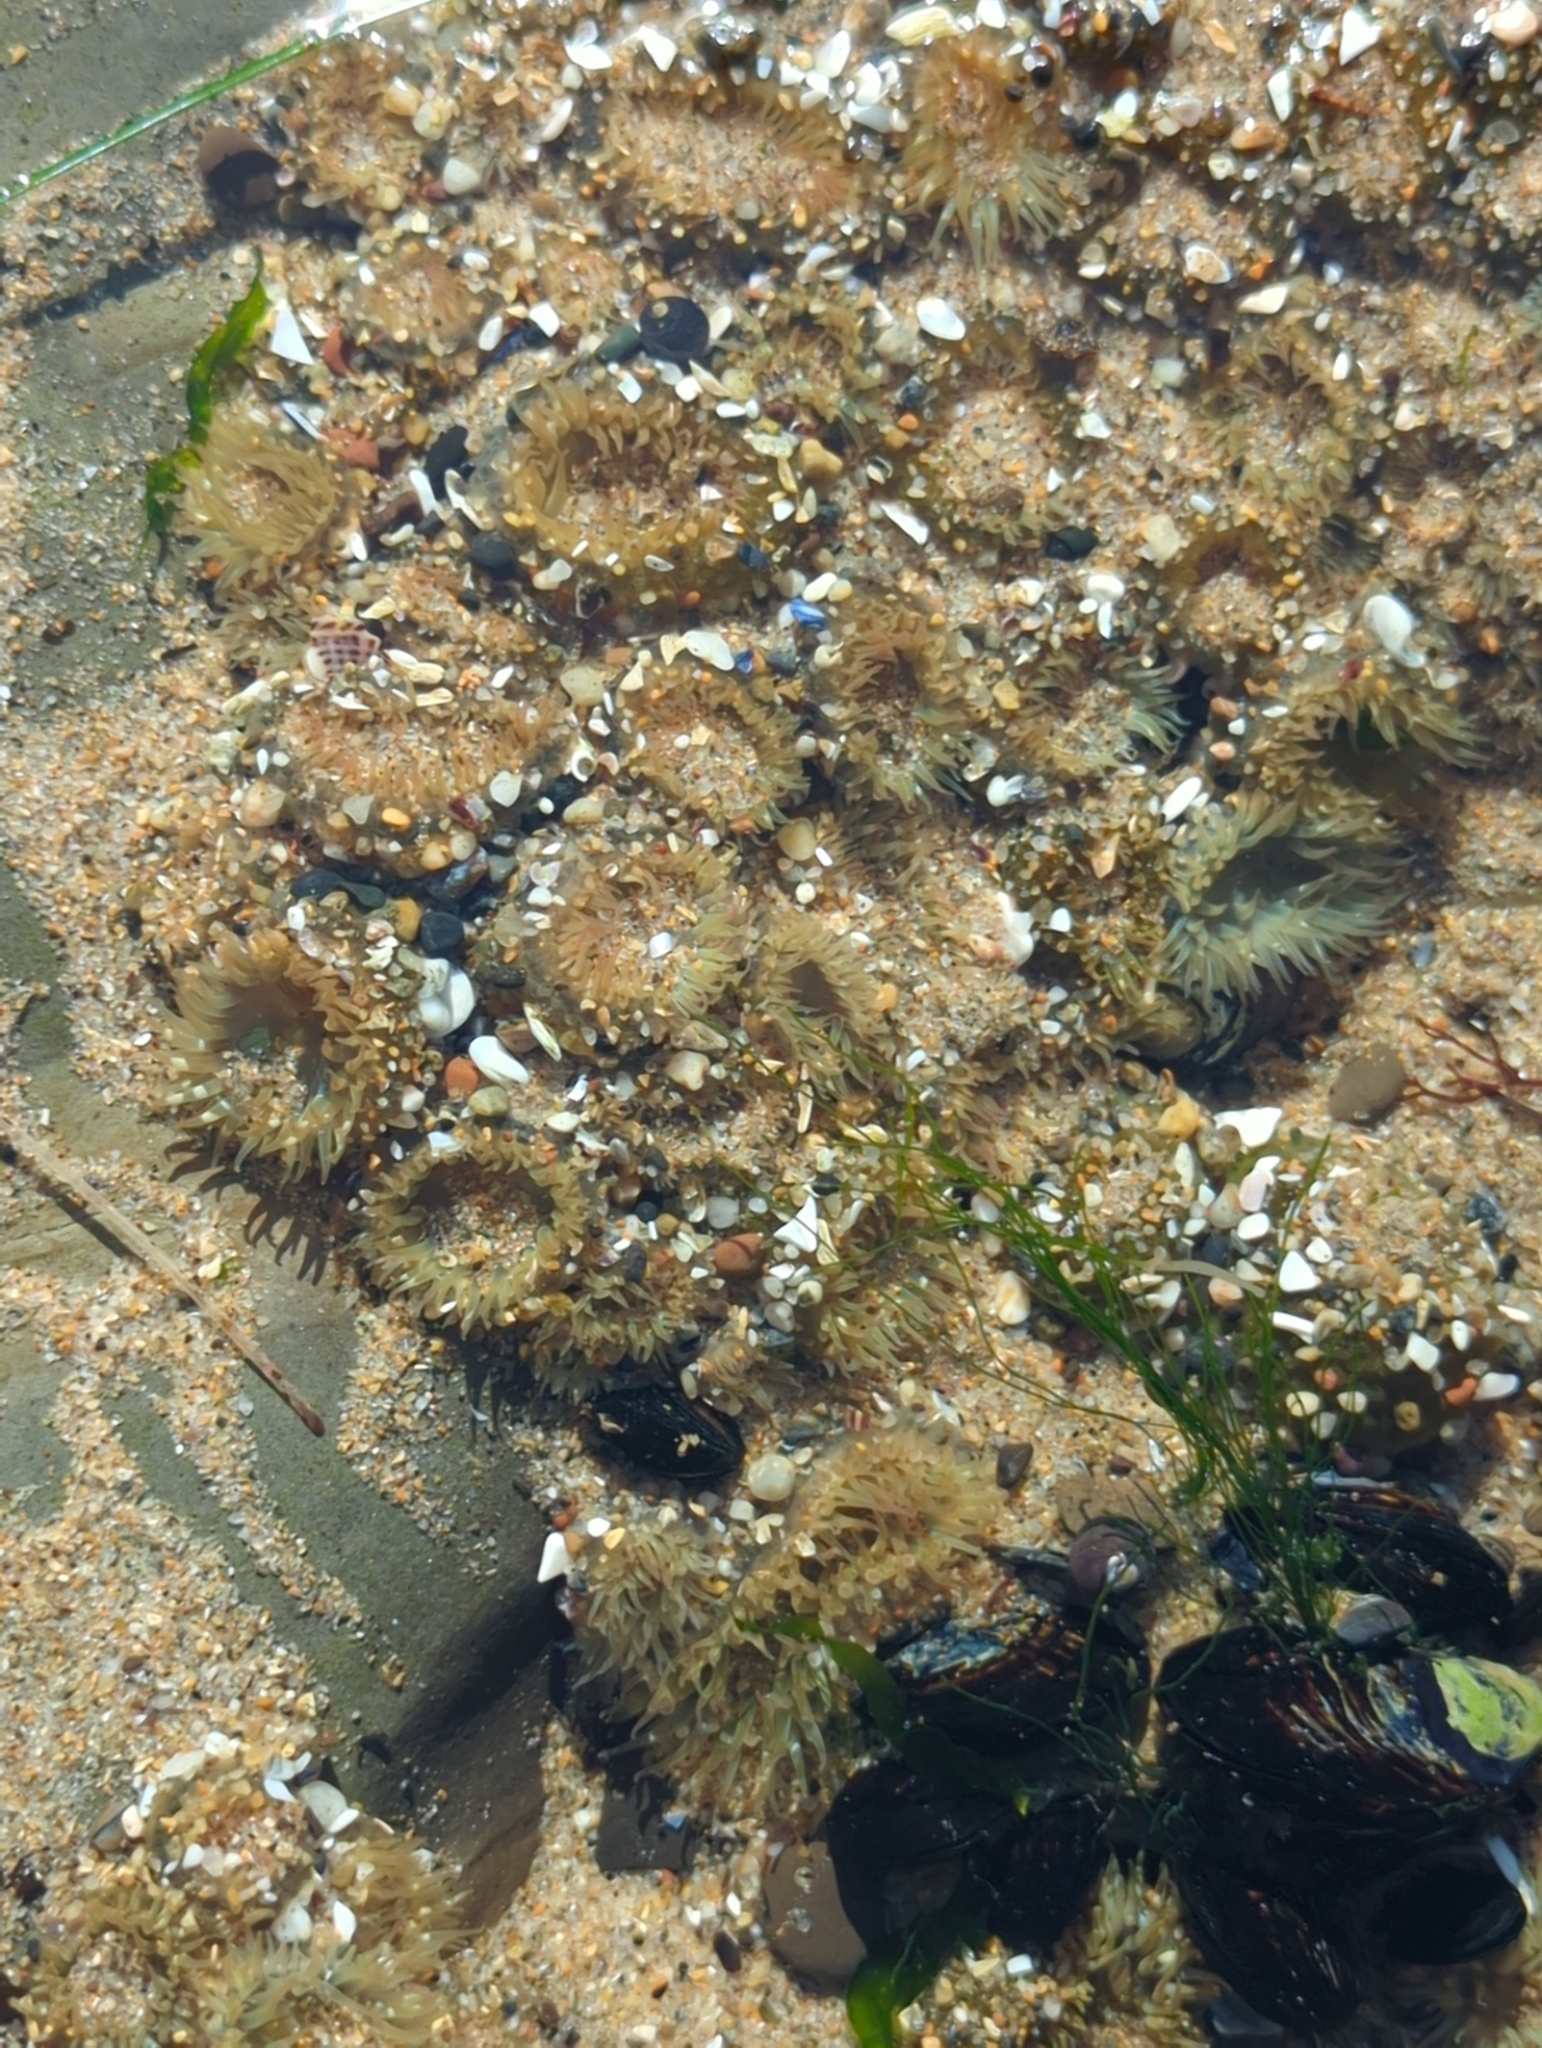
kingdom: Animalia
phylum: Cnidaria
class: Anthozoa
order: Actiniaria
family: Actiniidae
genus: Anthopleura
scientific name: Anthopleura elegantissima
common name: Clonal anemone
